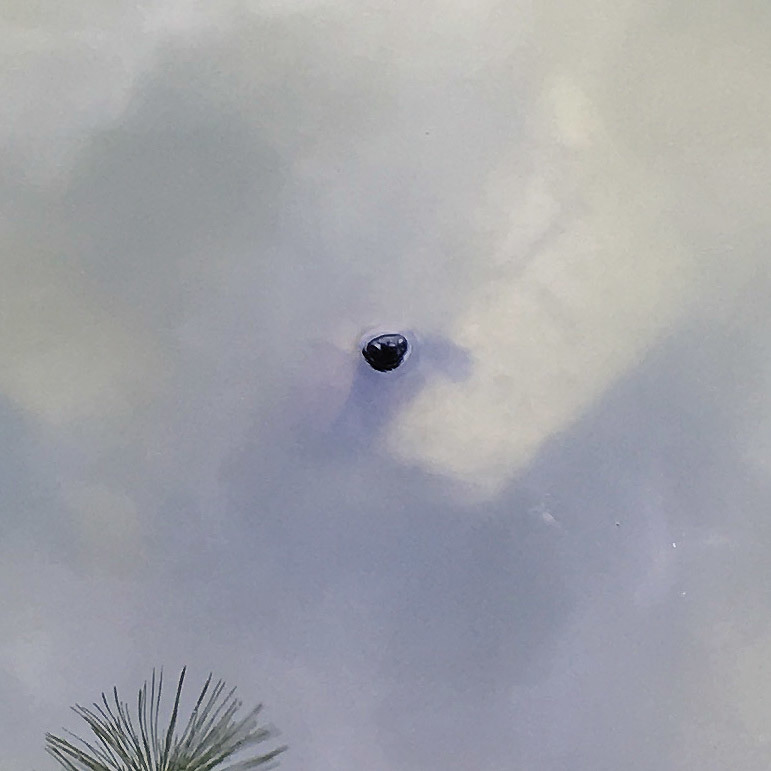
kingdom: Animalia
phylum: Chordata
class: Testudines
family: Geoemydidae
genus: Mauremys
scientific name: Mauremys reevesii
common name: Chinese pond turtle
